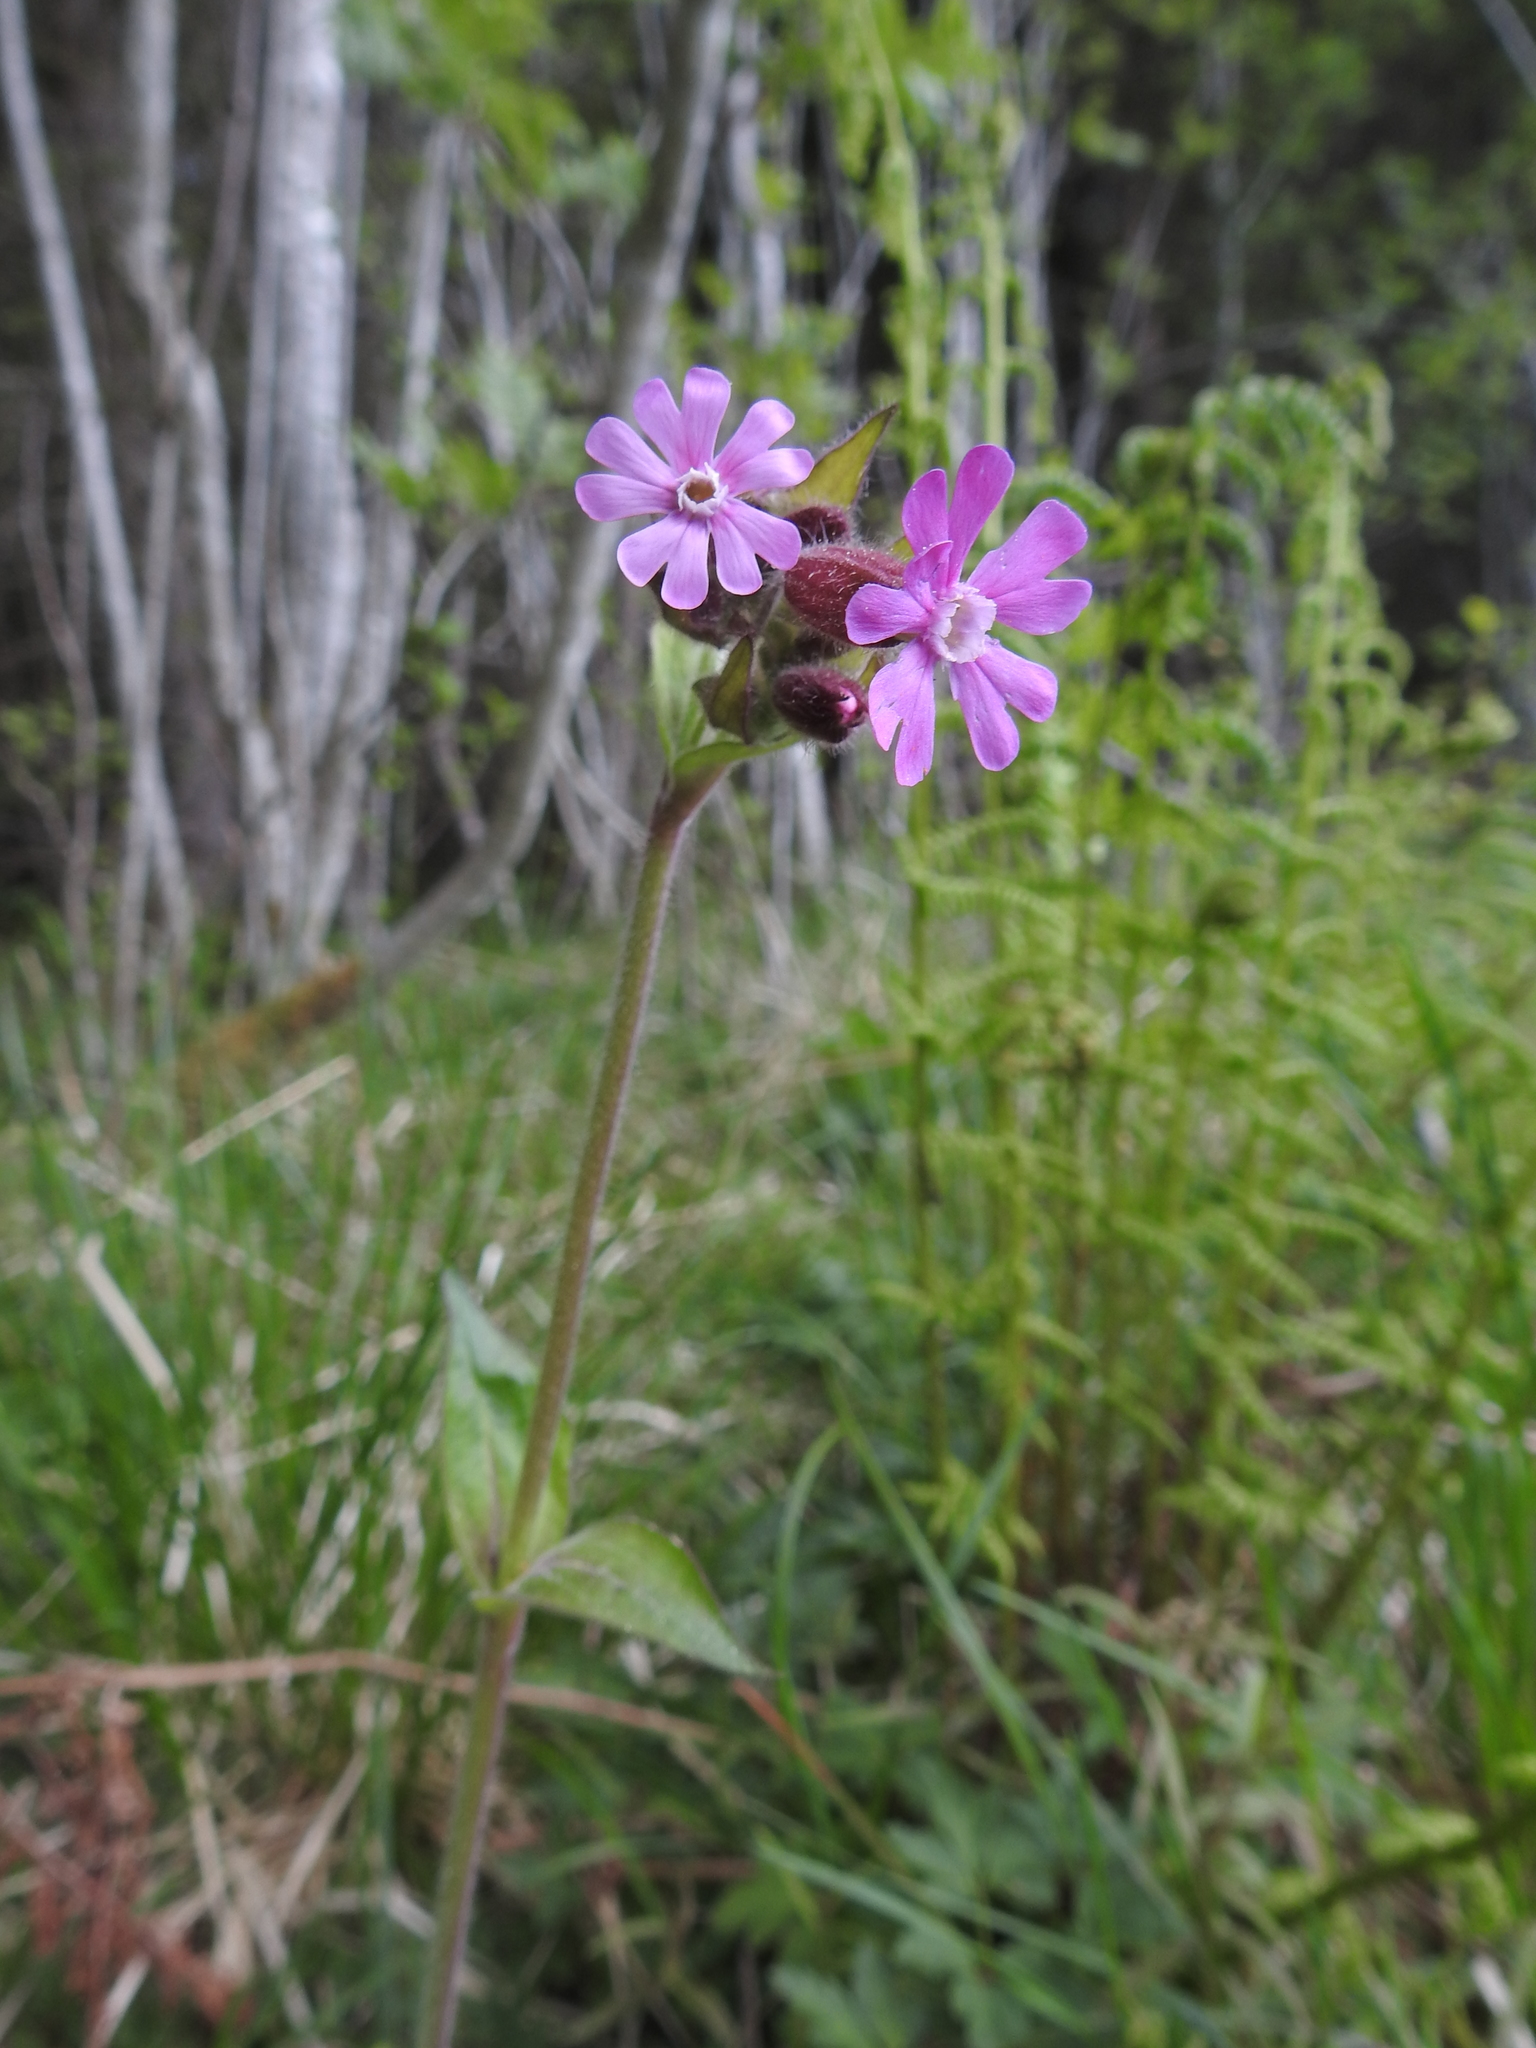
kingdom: Plantae
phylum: Tracheophyta
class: Magnoliopsida
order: Caryophyllales
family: Caryophyllaceae
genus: Silene
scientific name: Silene dioica
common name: Red campion
